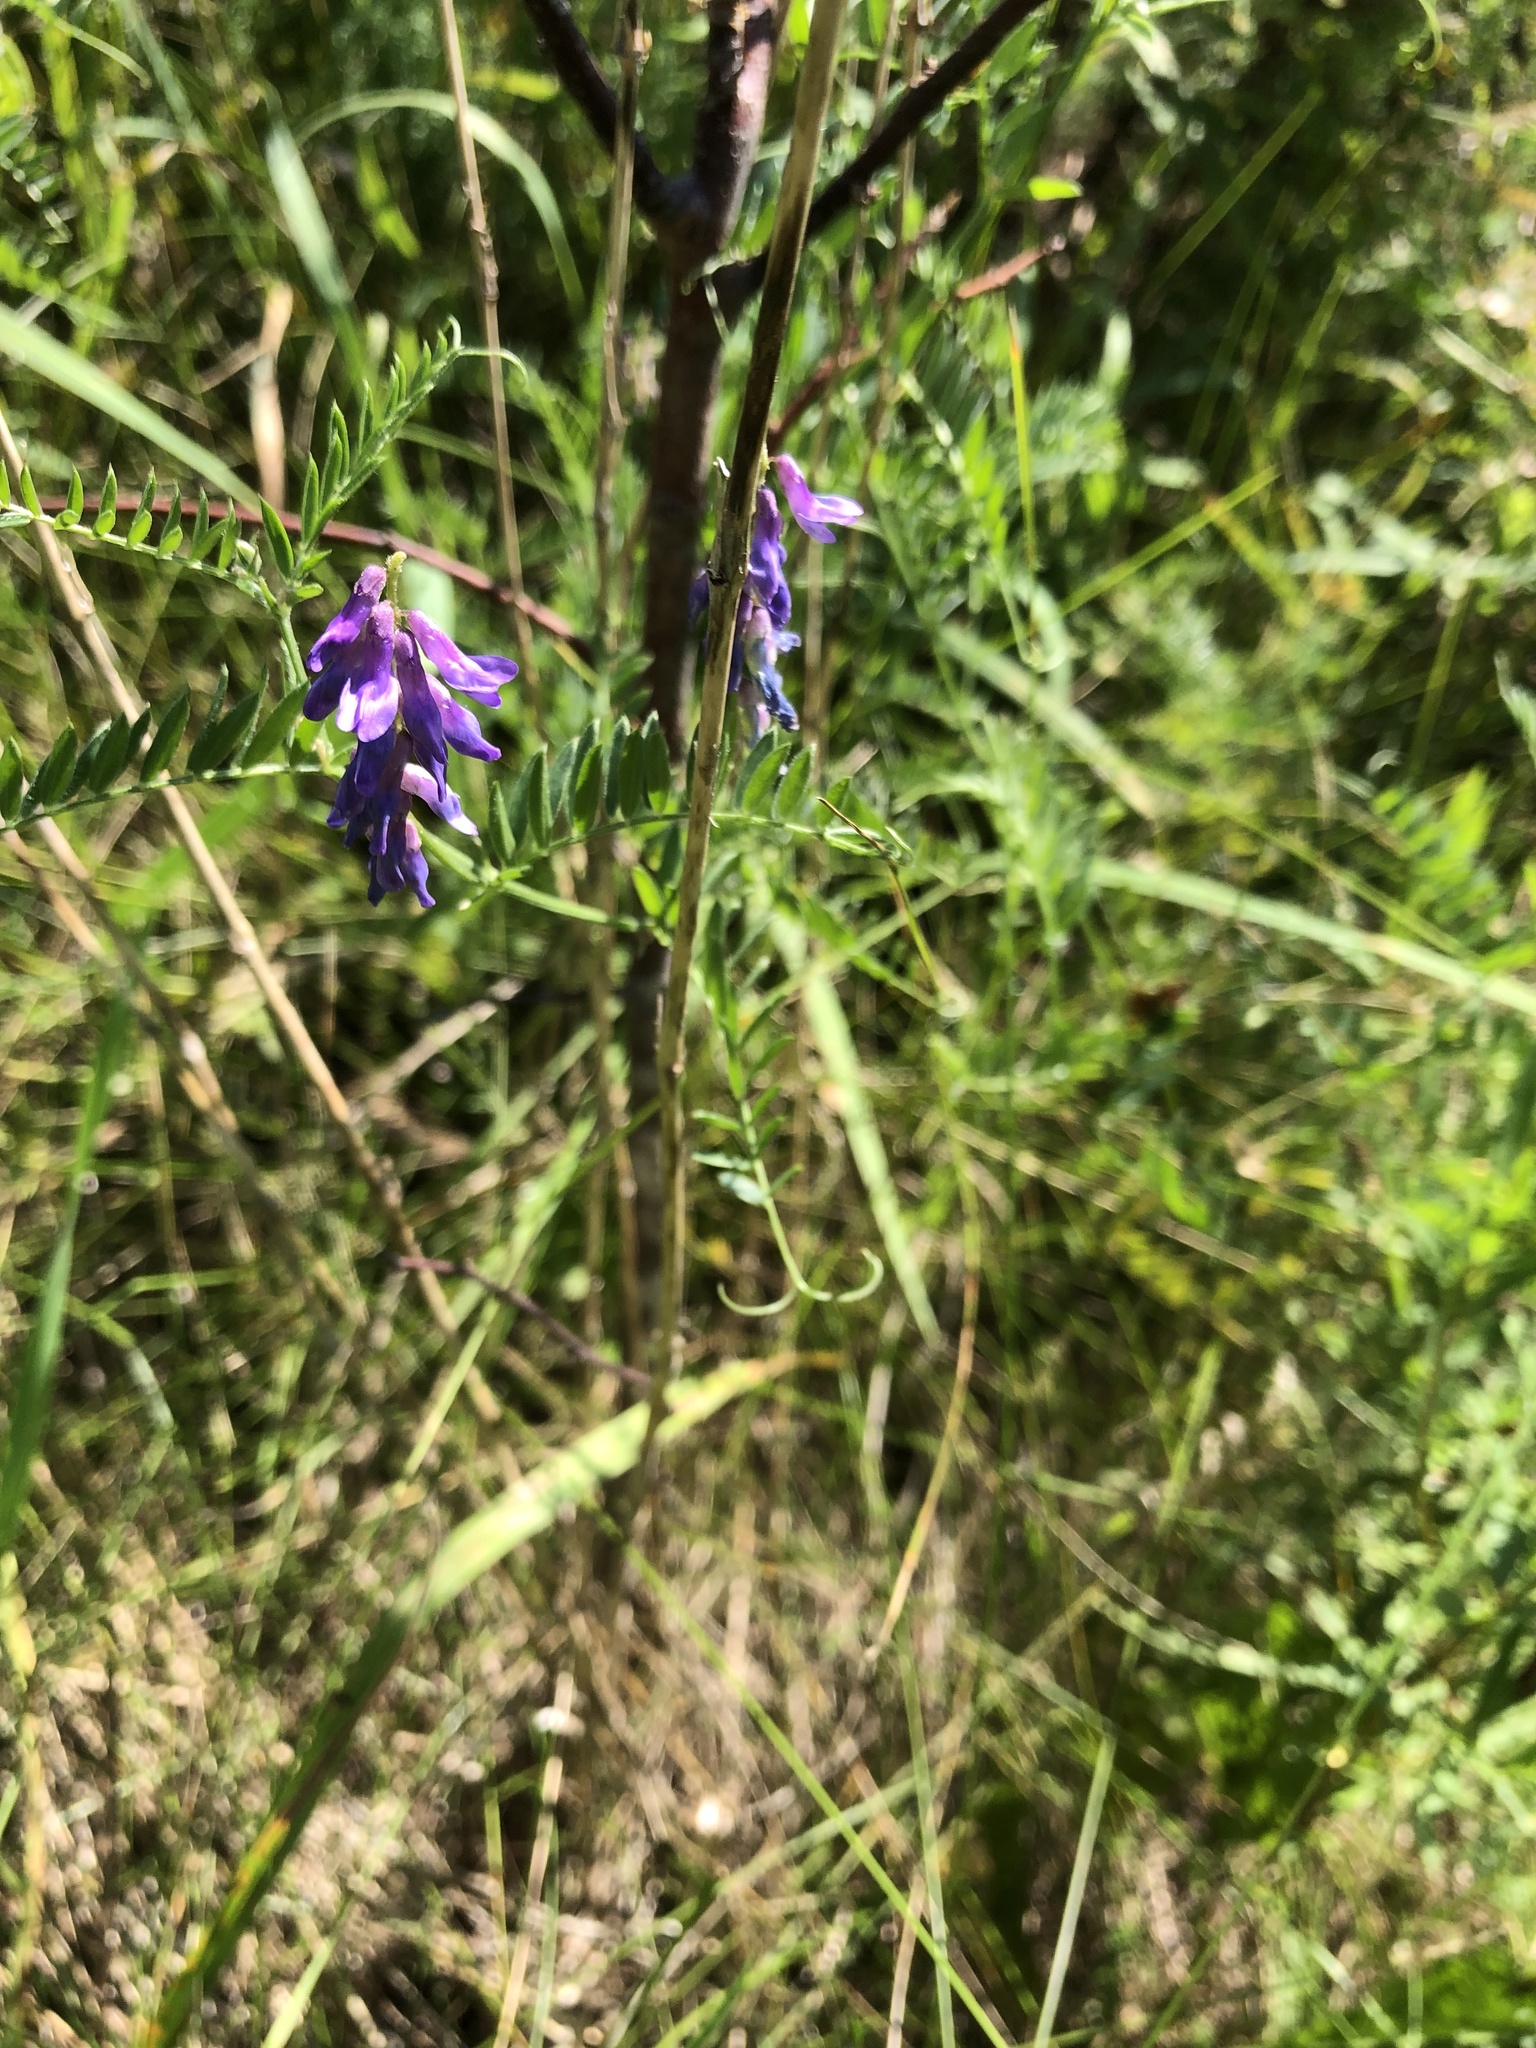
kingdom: Plantae
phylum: Tracheophyta
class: Magnoliopsida
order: Fabales
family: Fabaceae
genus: Vicia
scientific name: Vicia cracca
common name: Bird vetch
